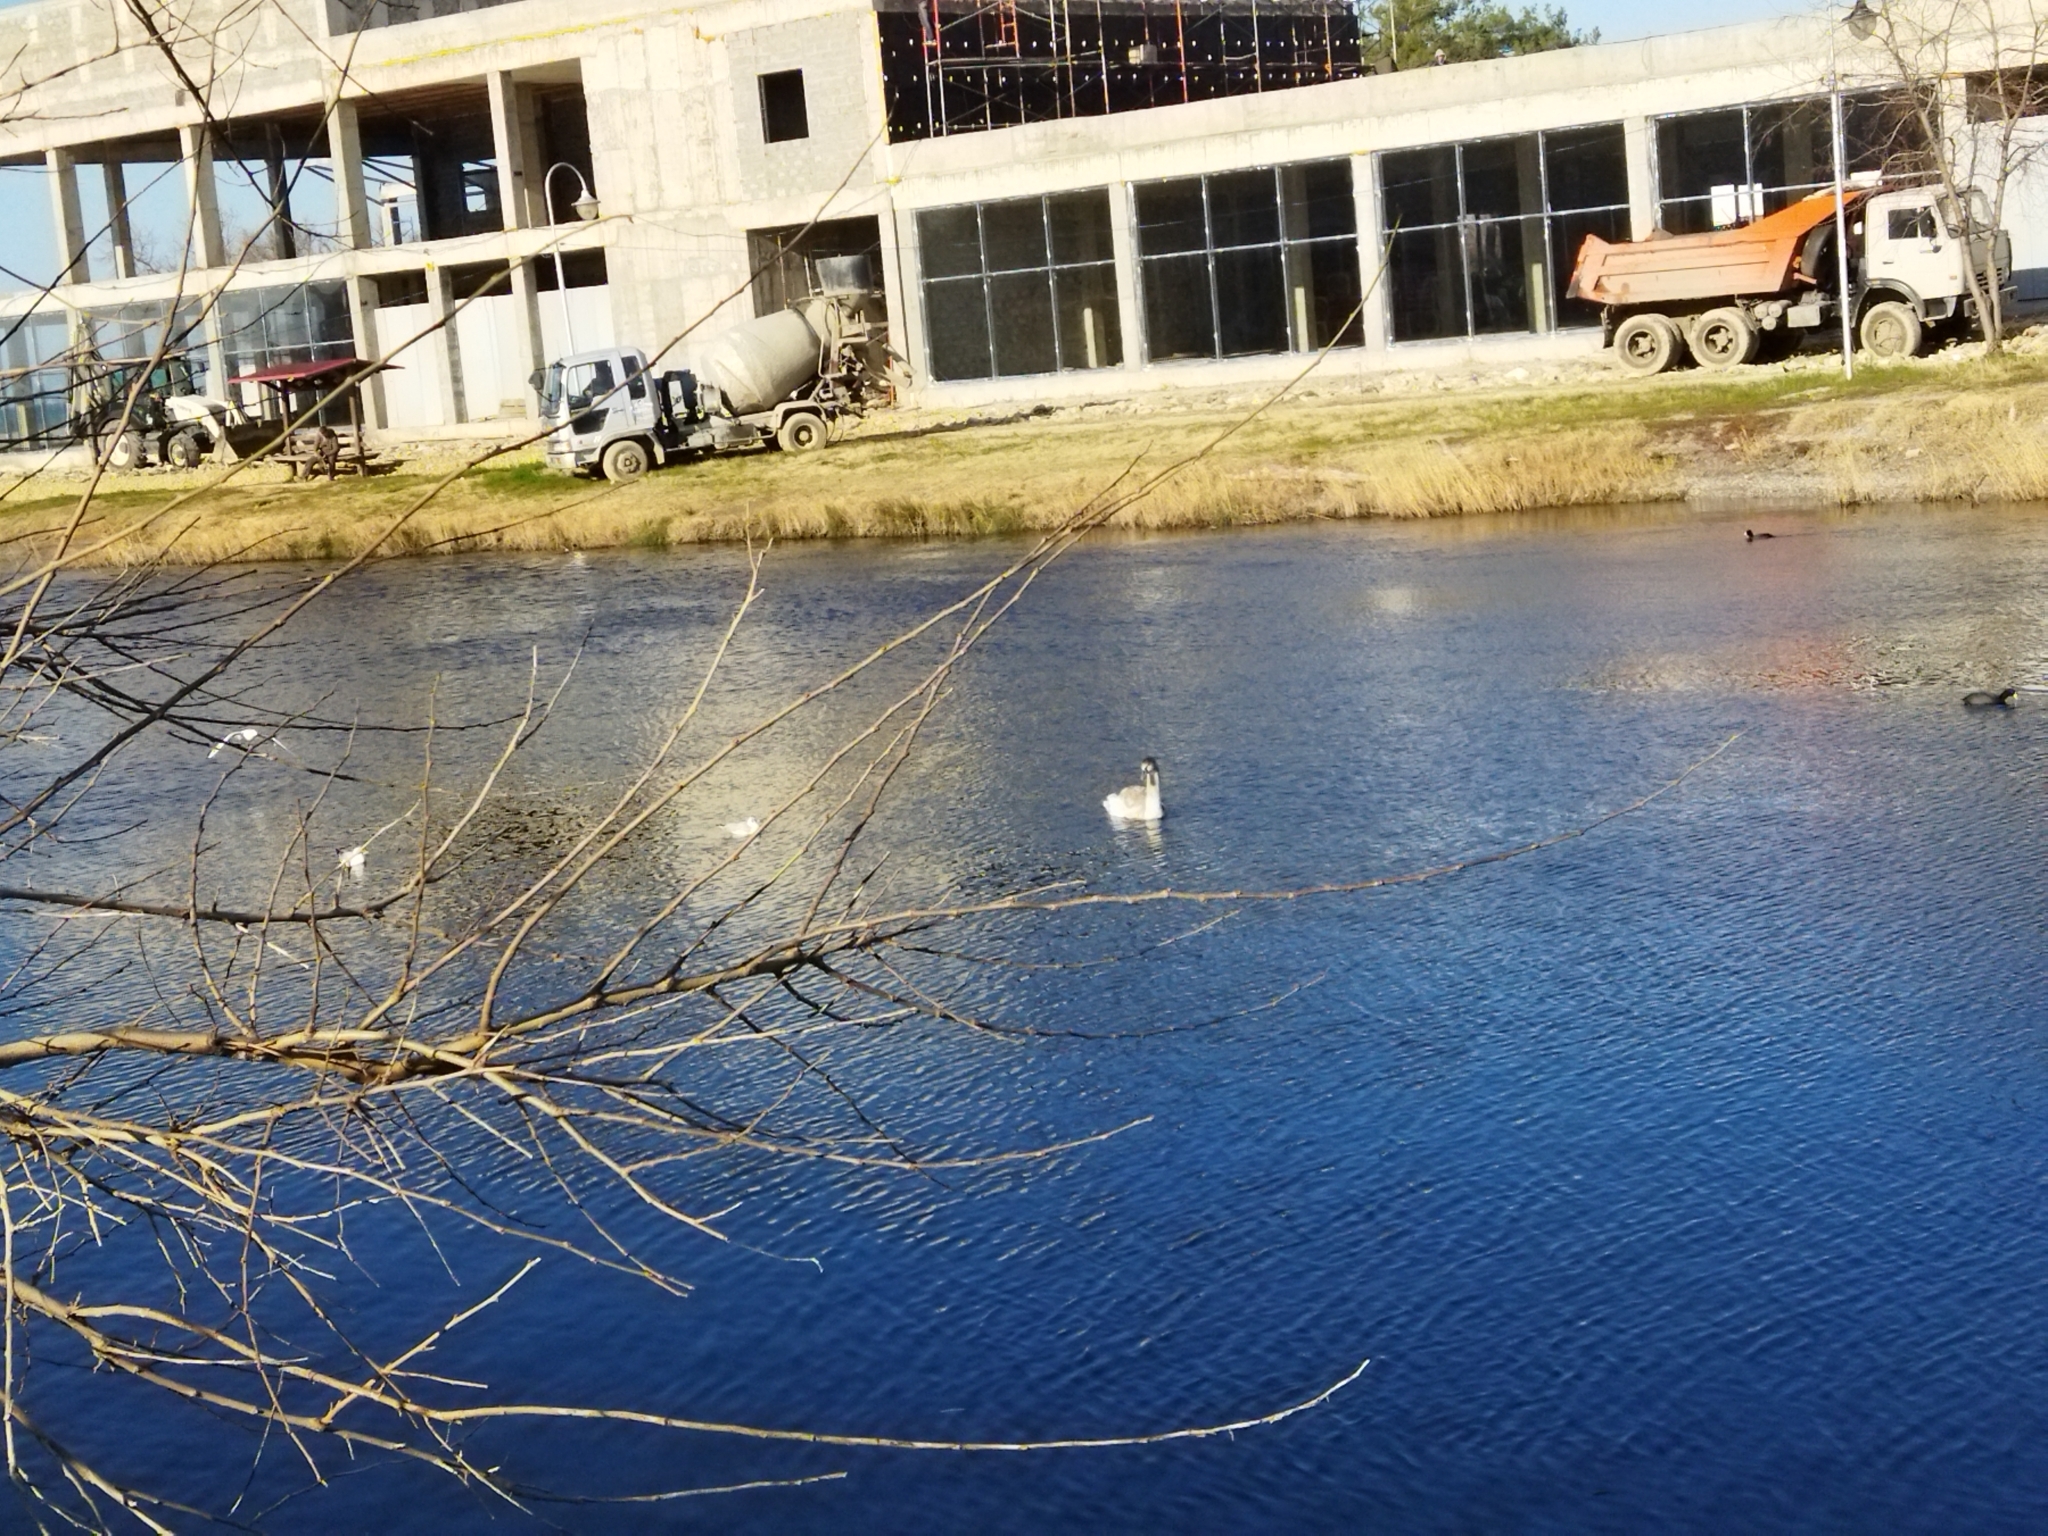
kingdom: Animalia
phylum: Chordata
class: Aves
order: Anseriformes
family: Anatidae
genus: Cygnus
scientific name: Cygnus olor
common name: Mute swan
